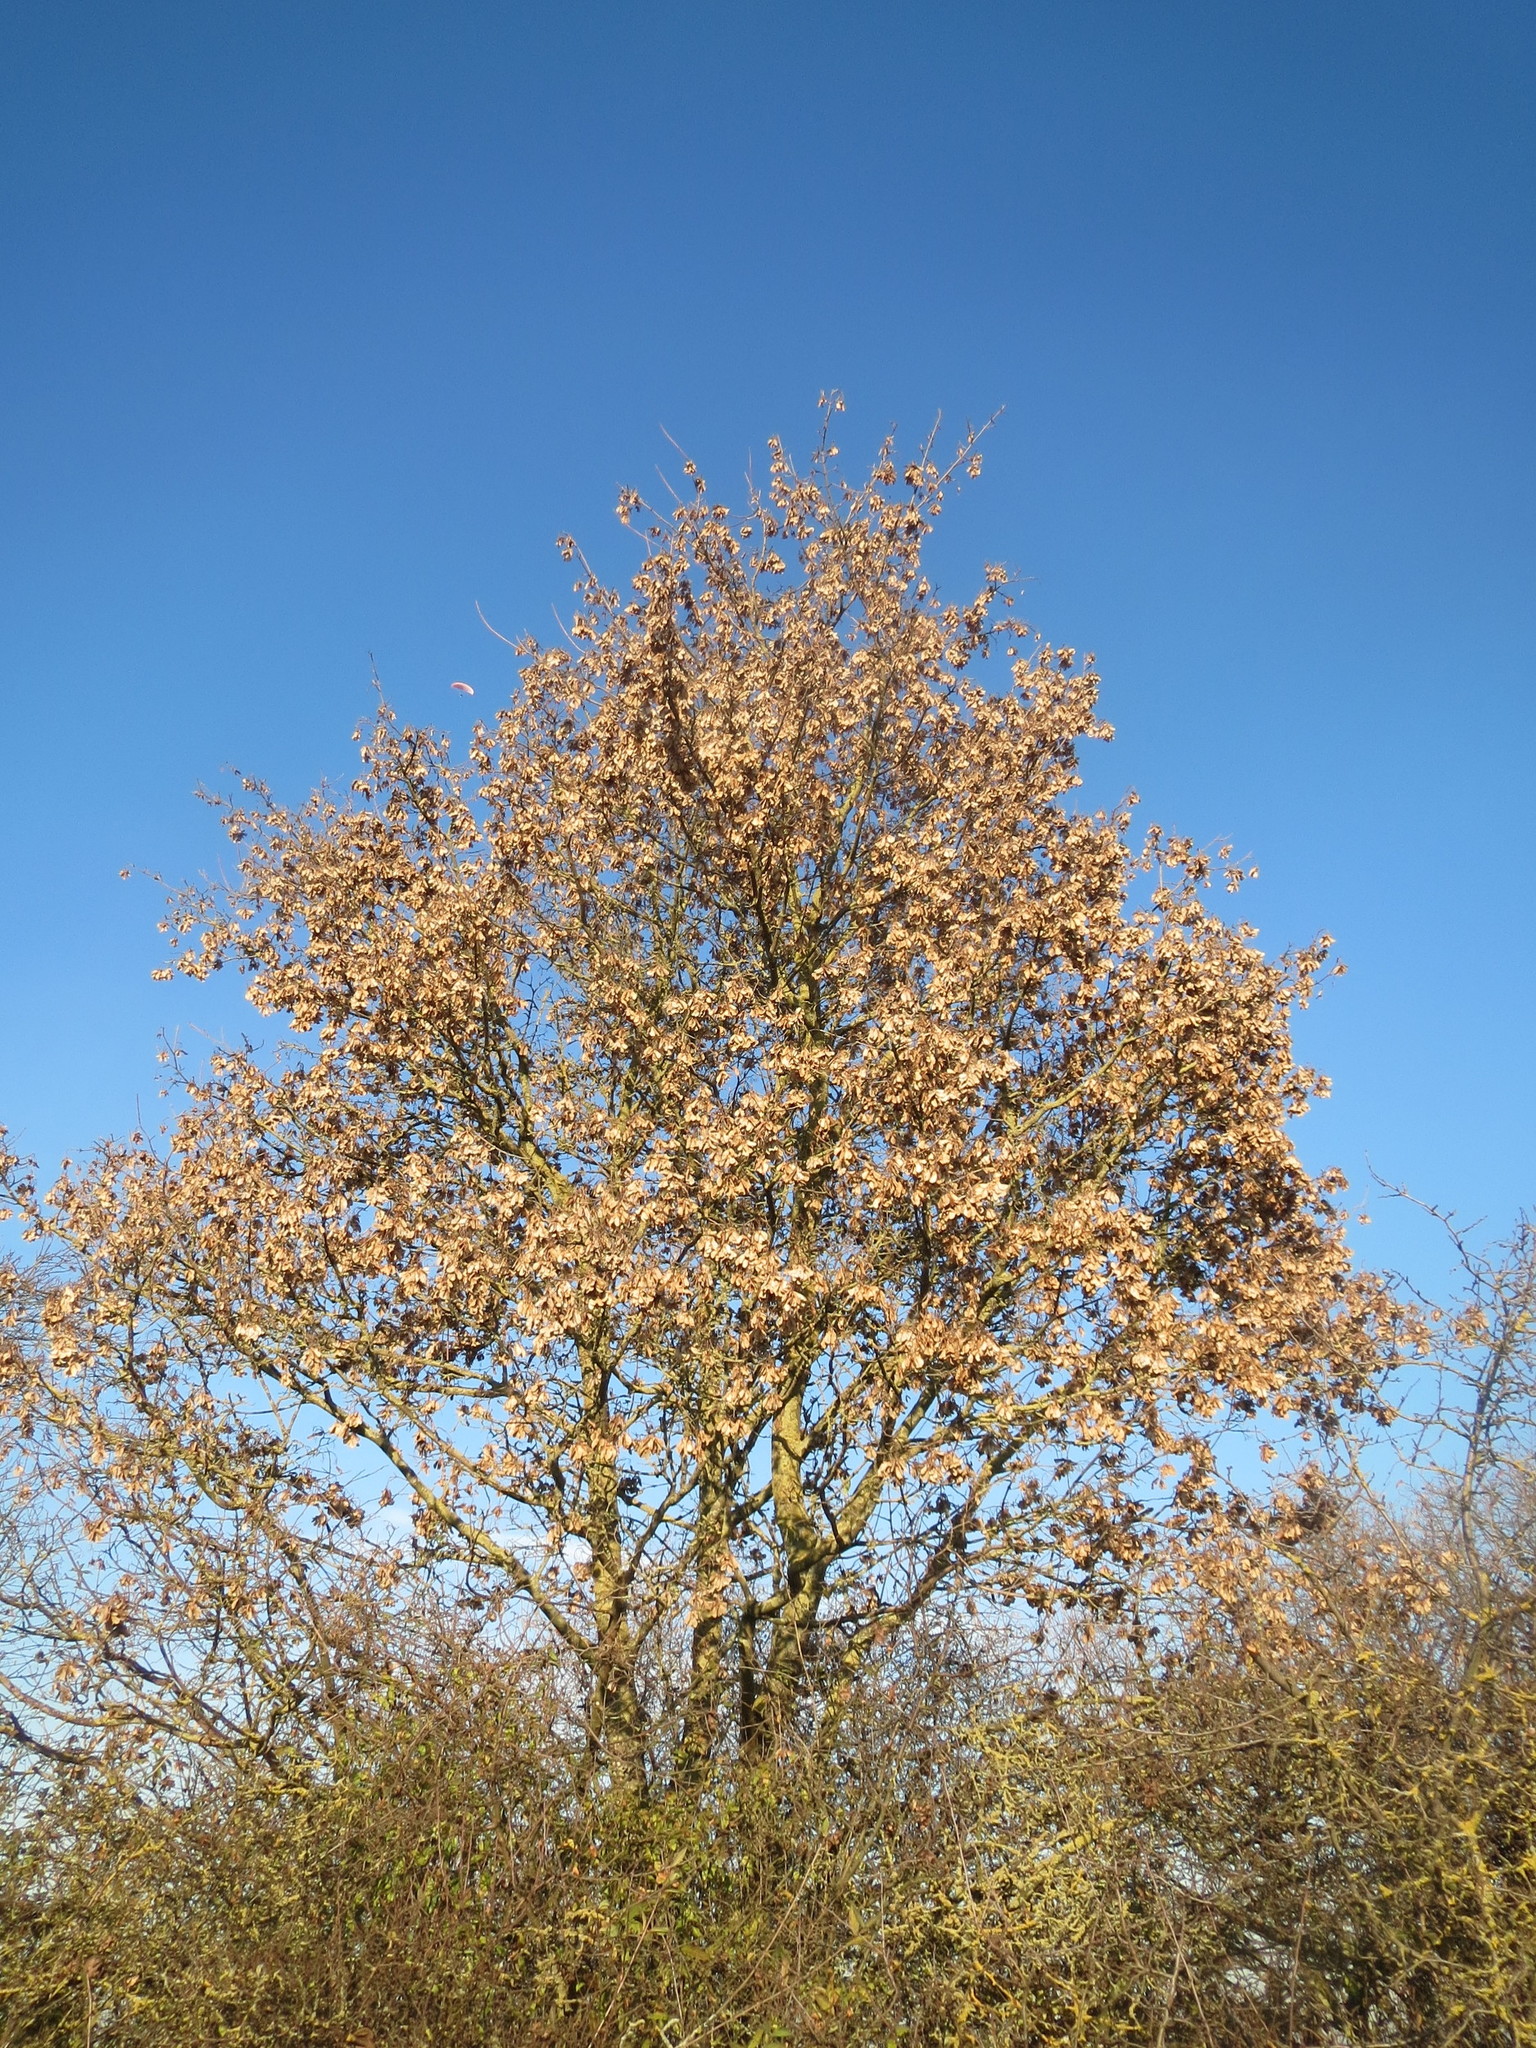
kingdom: Plantae
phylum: Tracheophyta
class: Magnoliopsida
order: Sapindales
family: Sapindaceae
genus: Acer
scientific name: Acer campestre
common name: Field maple
